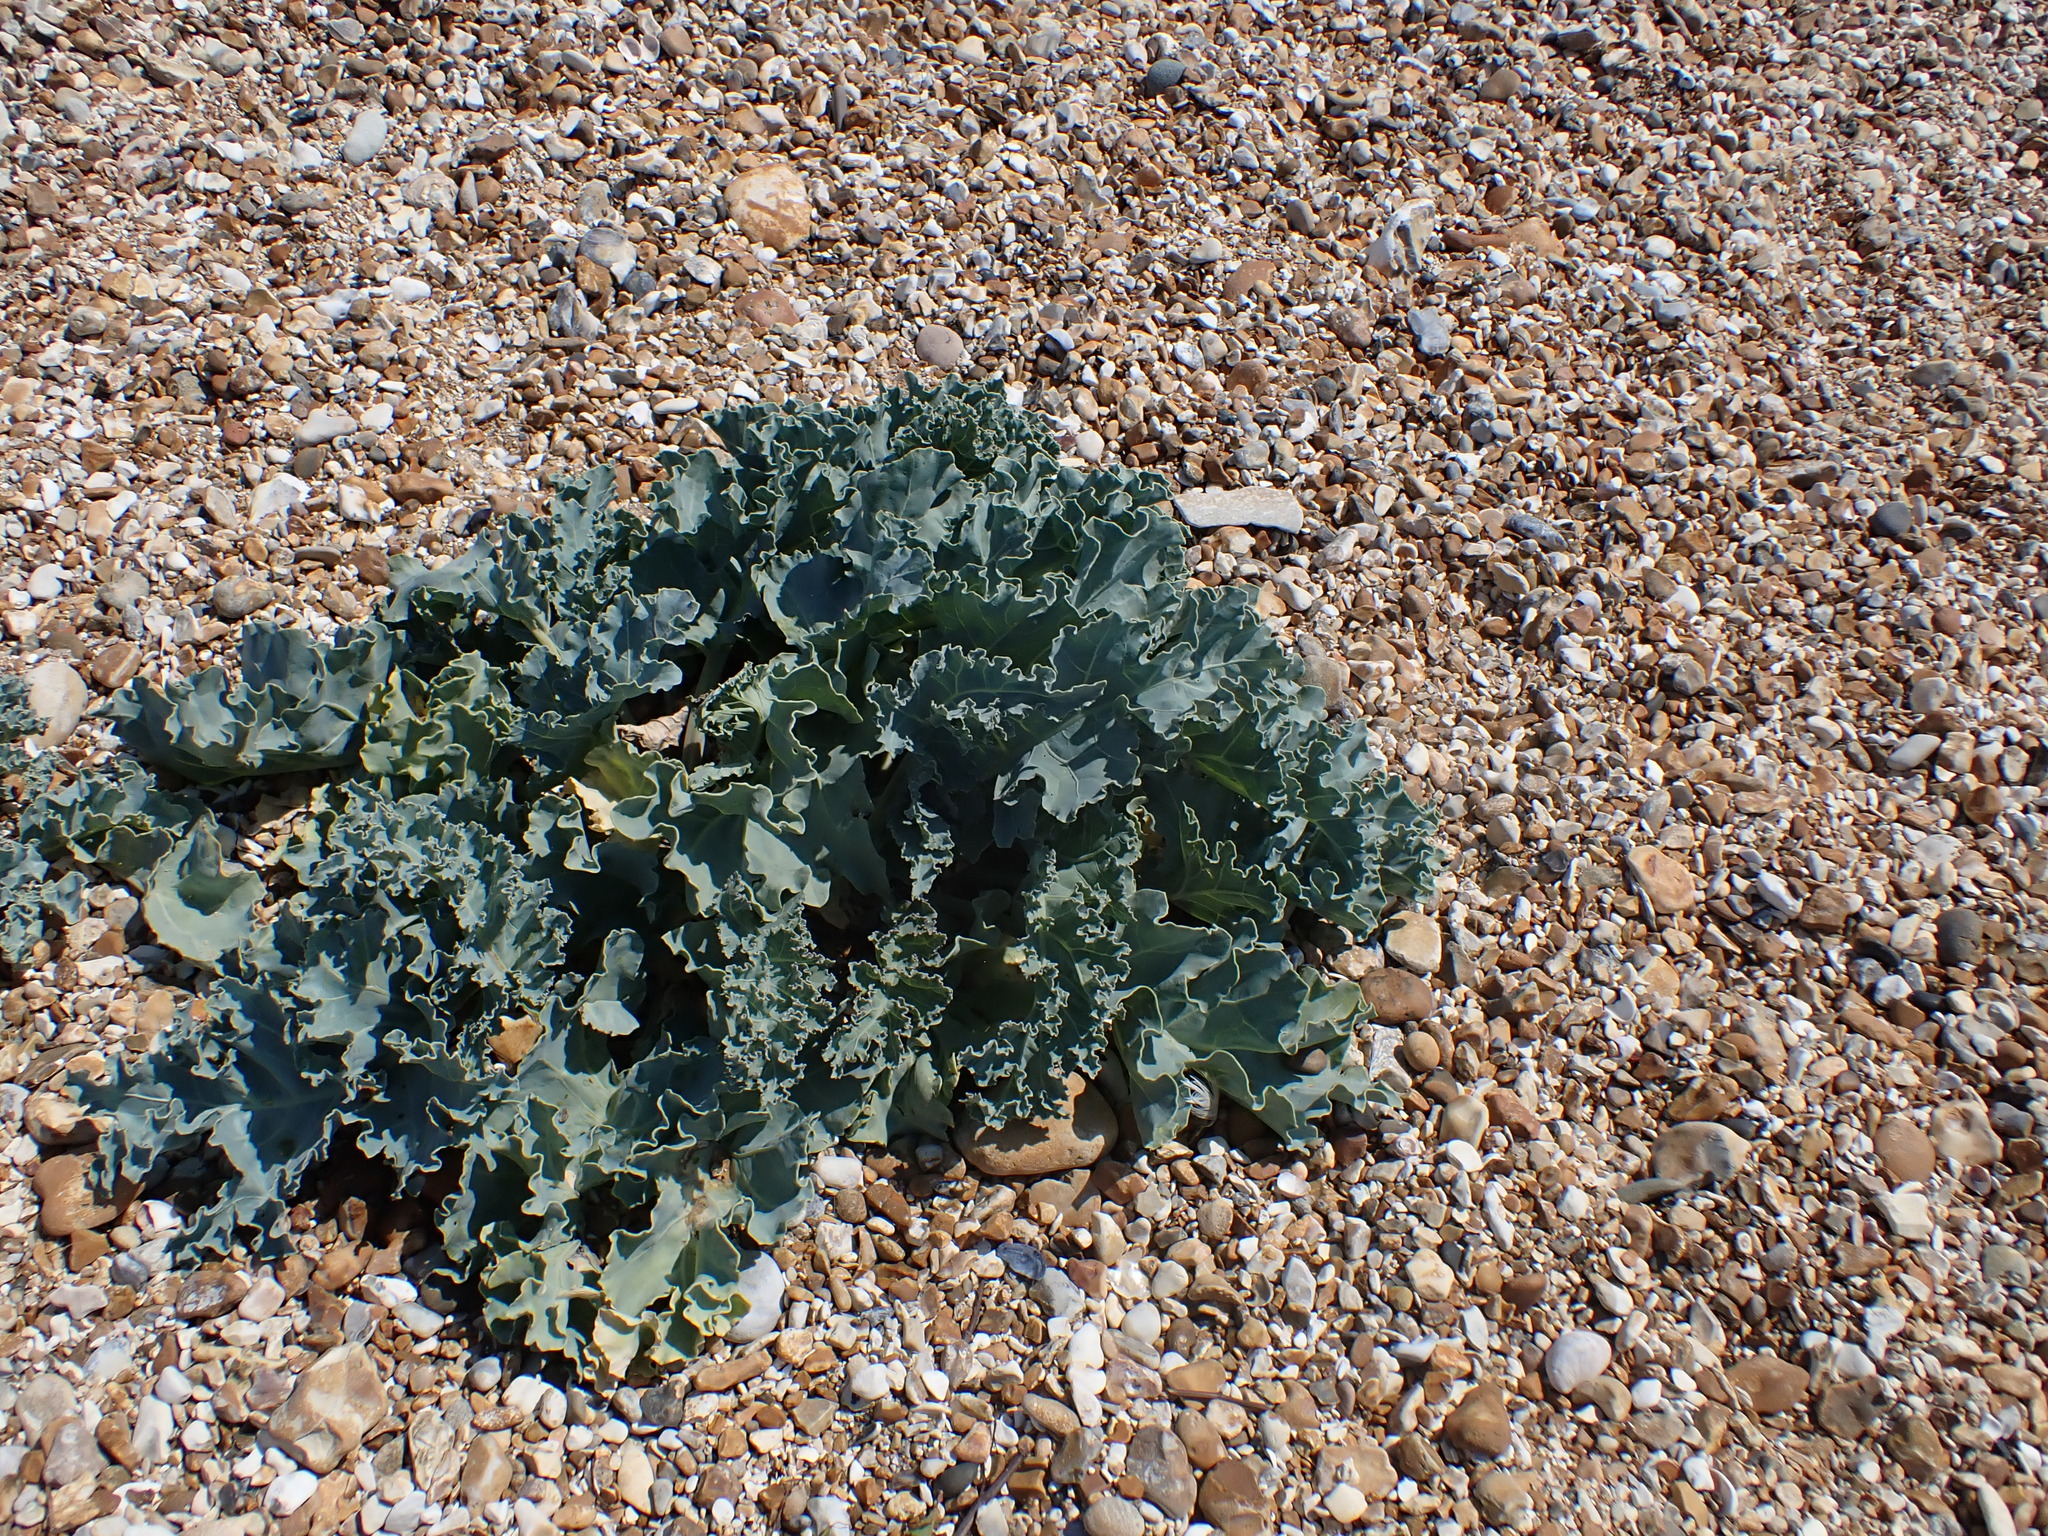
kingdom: Plantae
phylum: Tracheophyta
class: Magnoliopsida
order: Brassicales
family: Brassicaceae
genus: Crambe
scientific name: Crambe maritima
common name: Sea-kale
